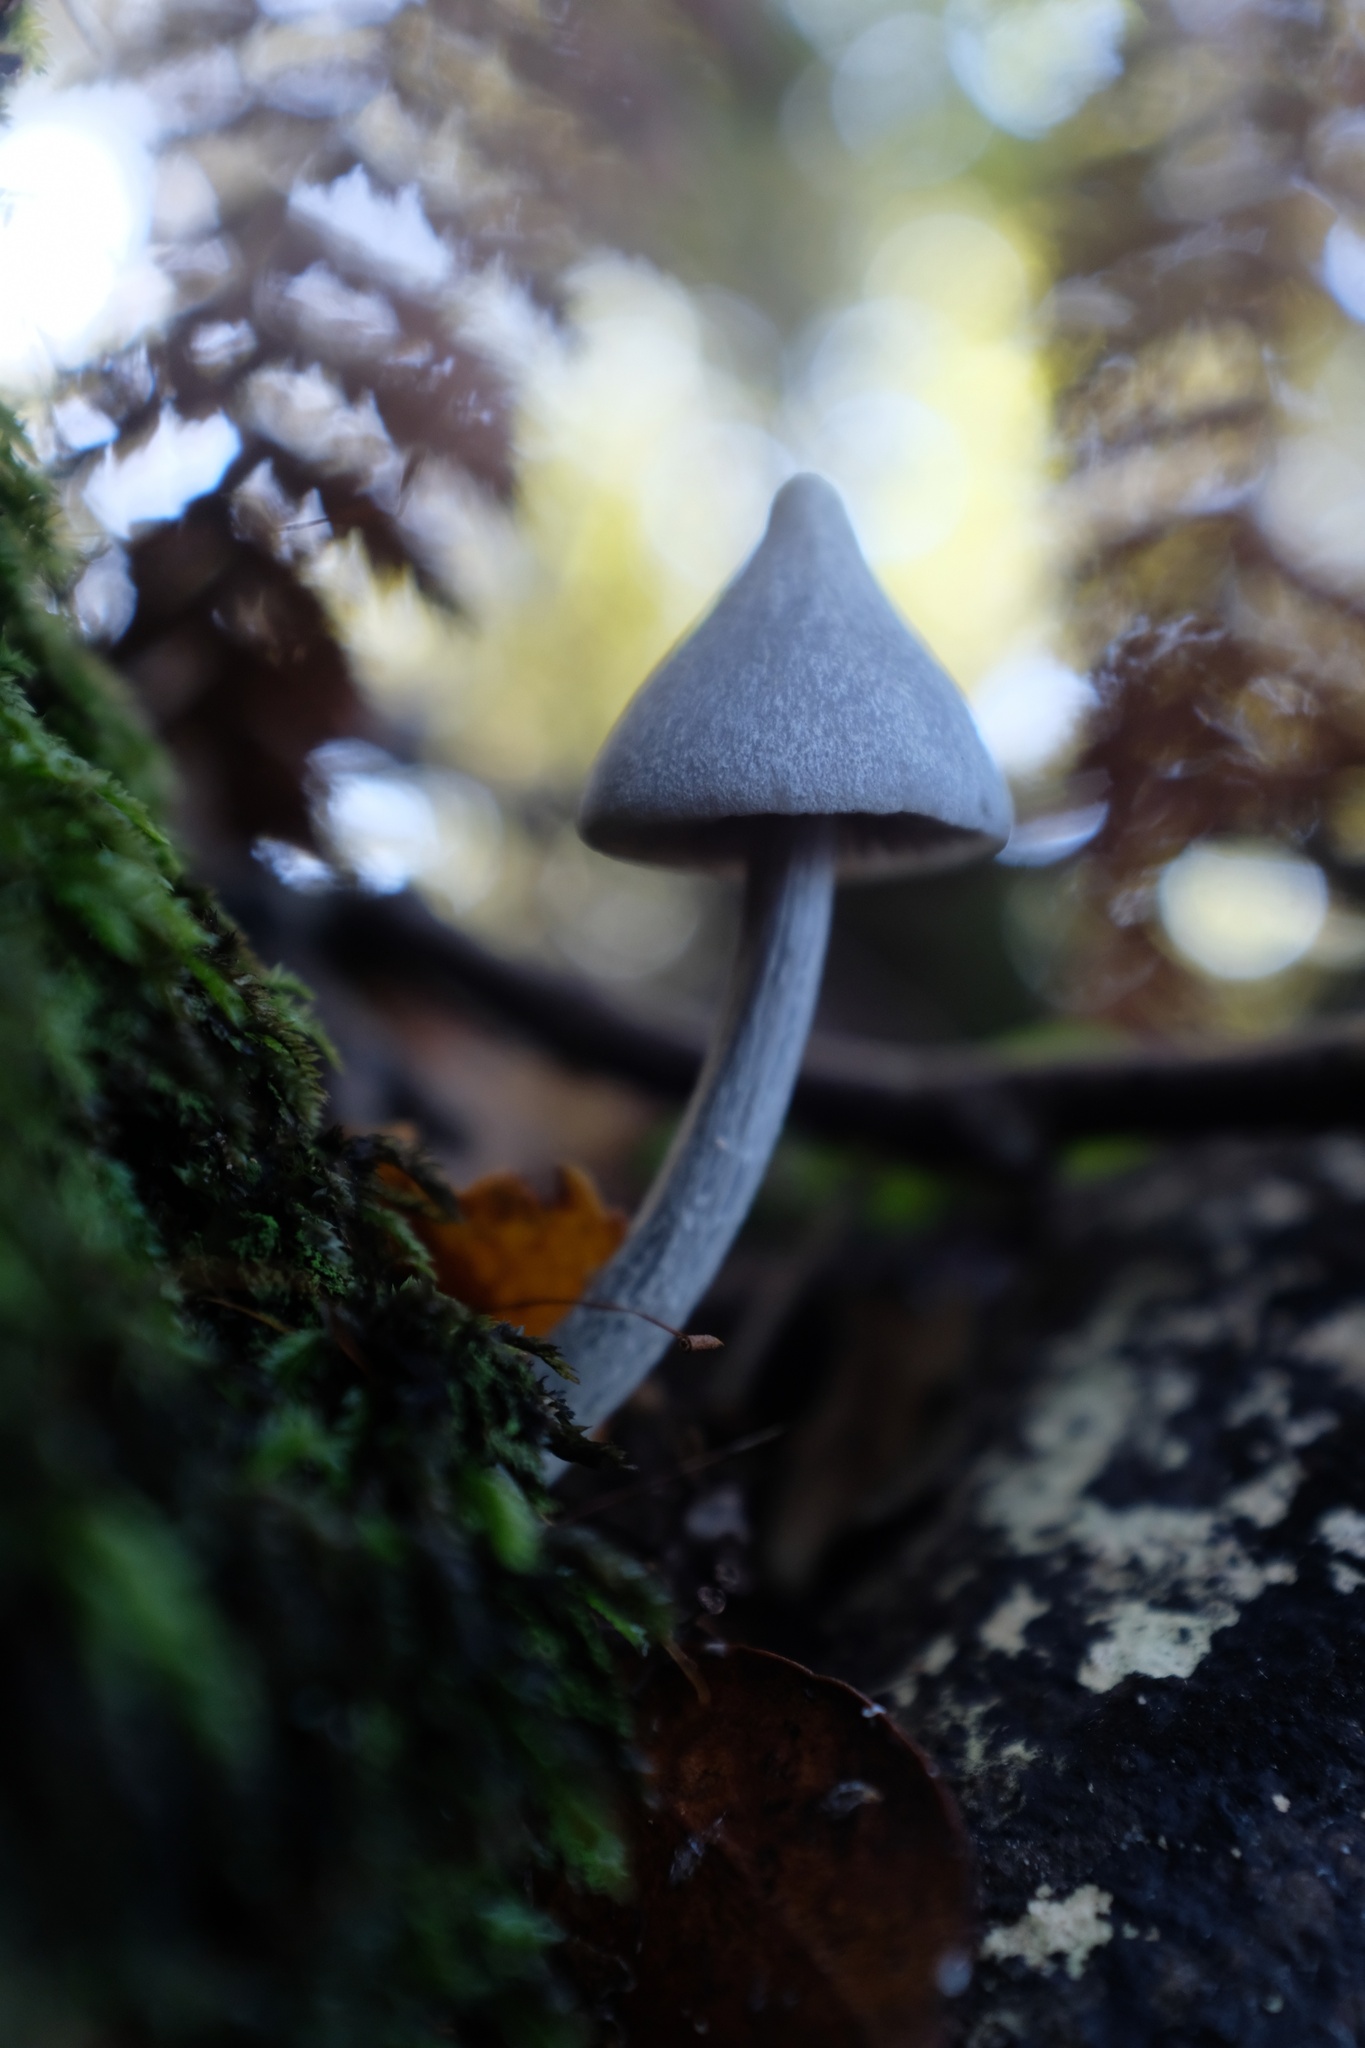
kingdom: Fungi
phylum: Basidiomycota
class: Agaricomycetes
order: Agaricales
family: Entolomataceae
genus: Entoloma
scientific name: Entoloma hochstetteri
